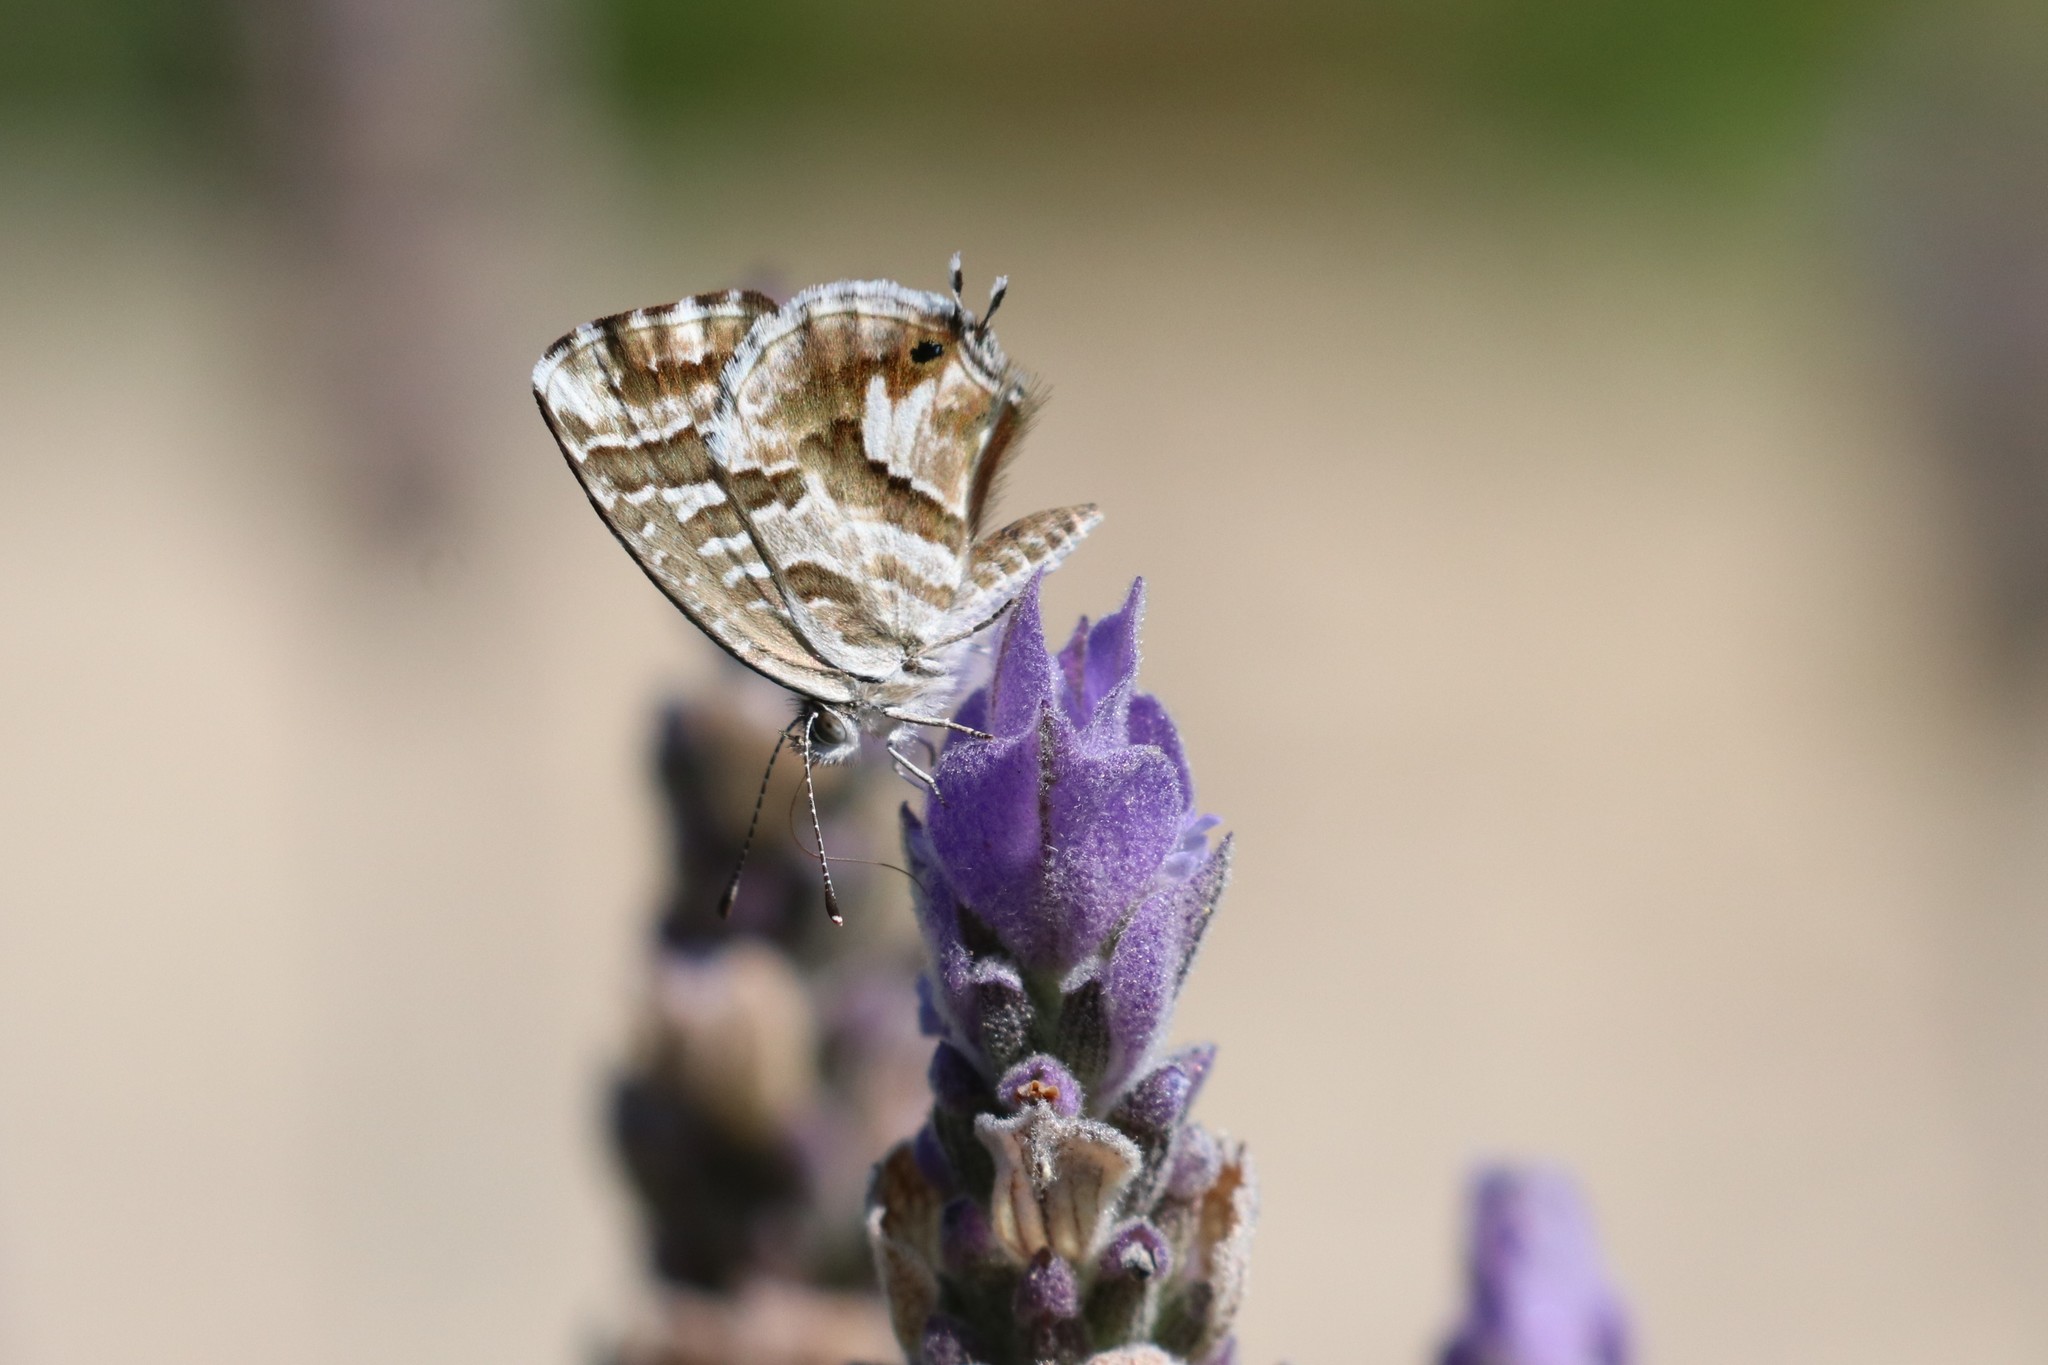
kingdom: Animalia
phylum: Arthropoda
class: Insecta
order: Lepidoptera
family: Lycaenidae
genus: Cacyreus
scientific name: Cacyreus marshalli
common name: Geranium bronze
